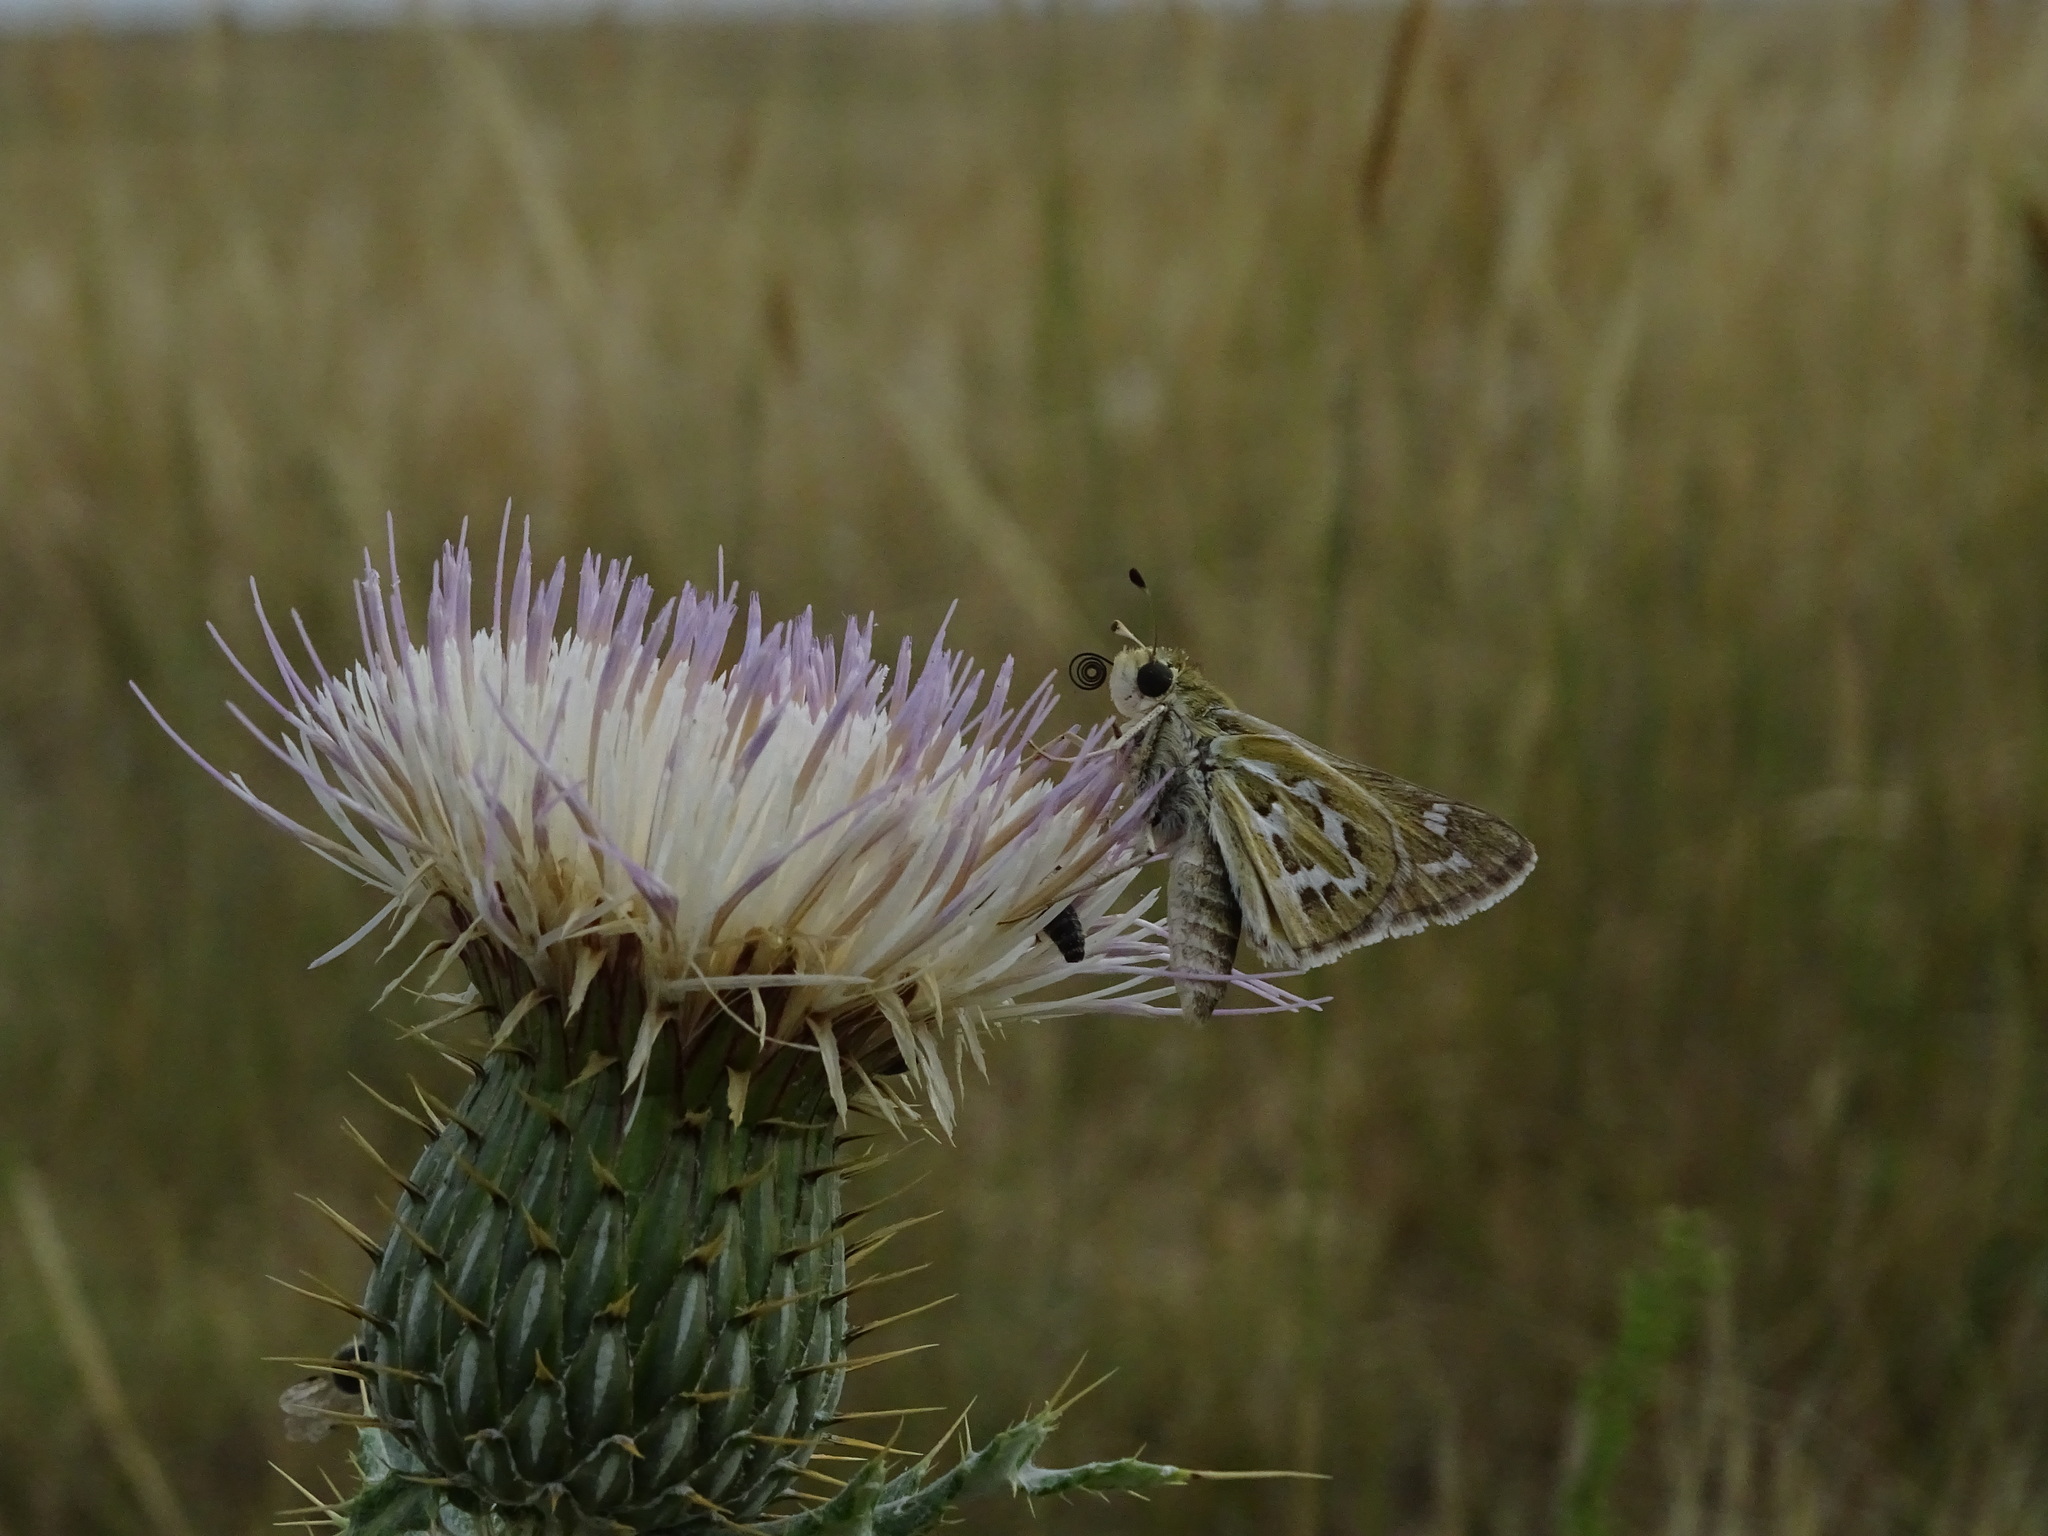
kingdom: Animalia
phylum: Arthropoda
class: Insecta
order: Lepidoptera
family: Hesperiidae
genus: Hesperia
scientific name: Hesperia uncas
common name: Uncas skipper
